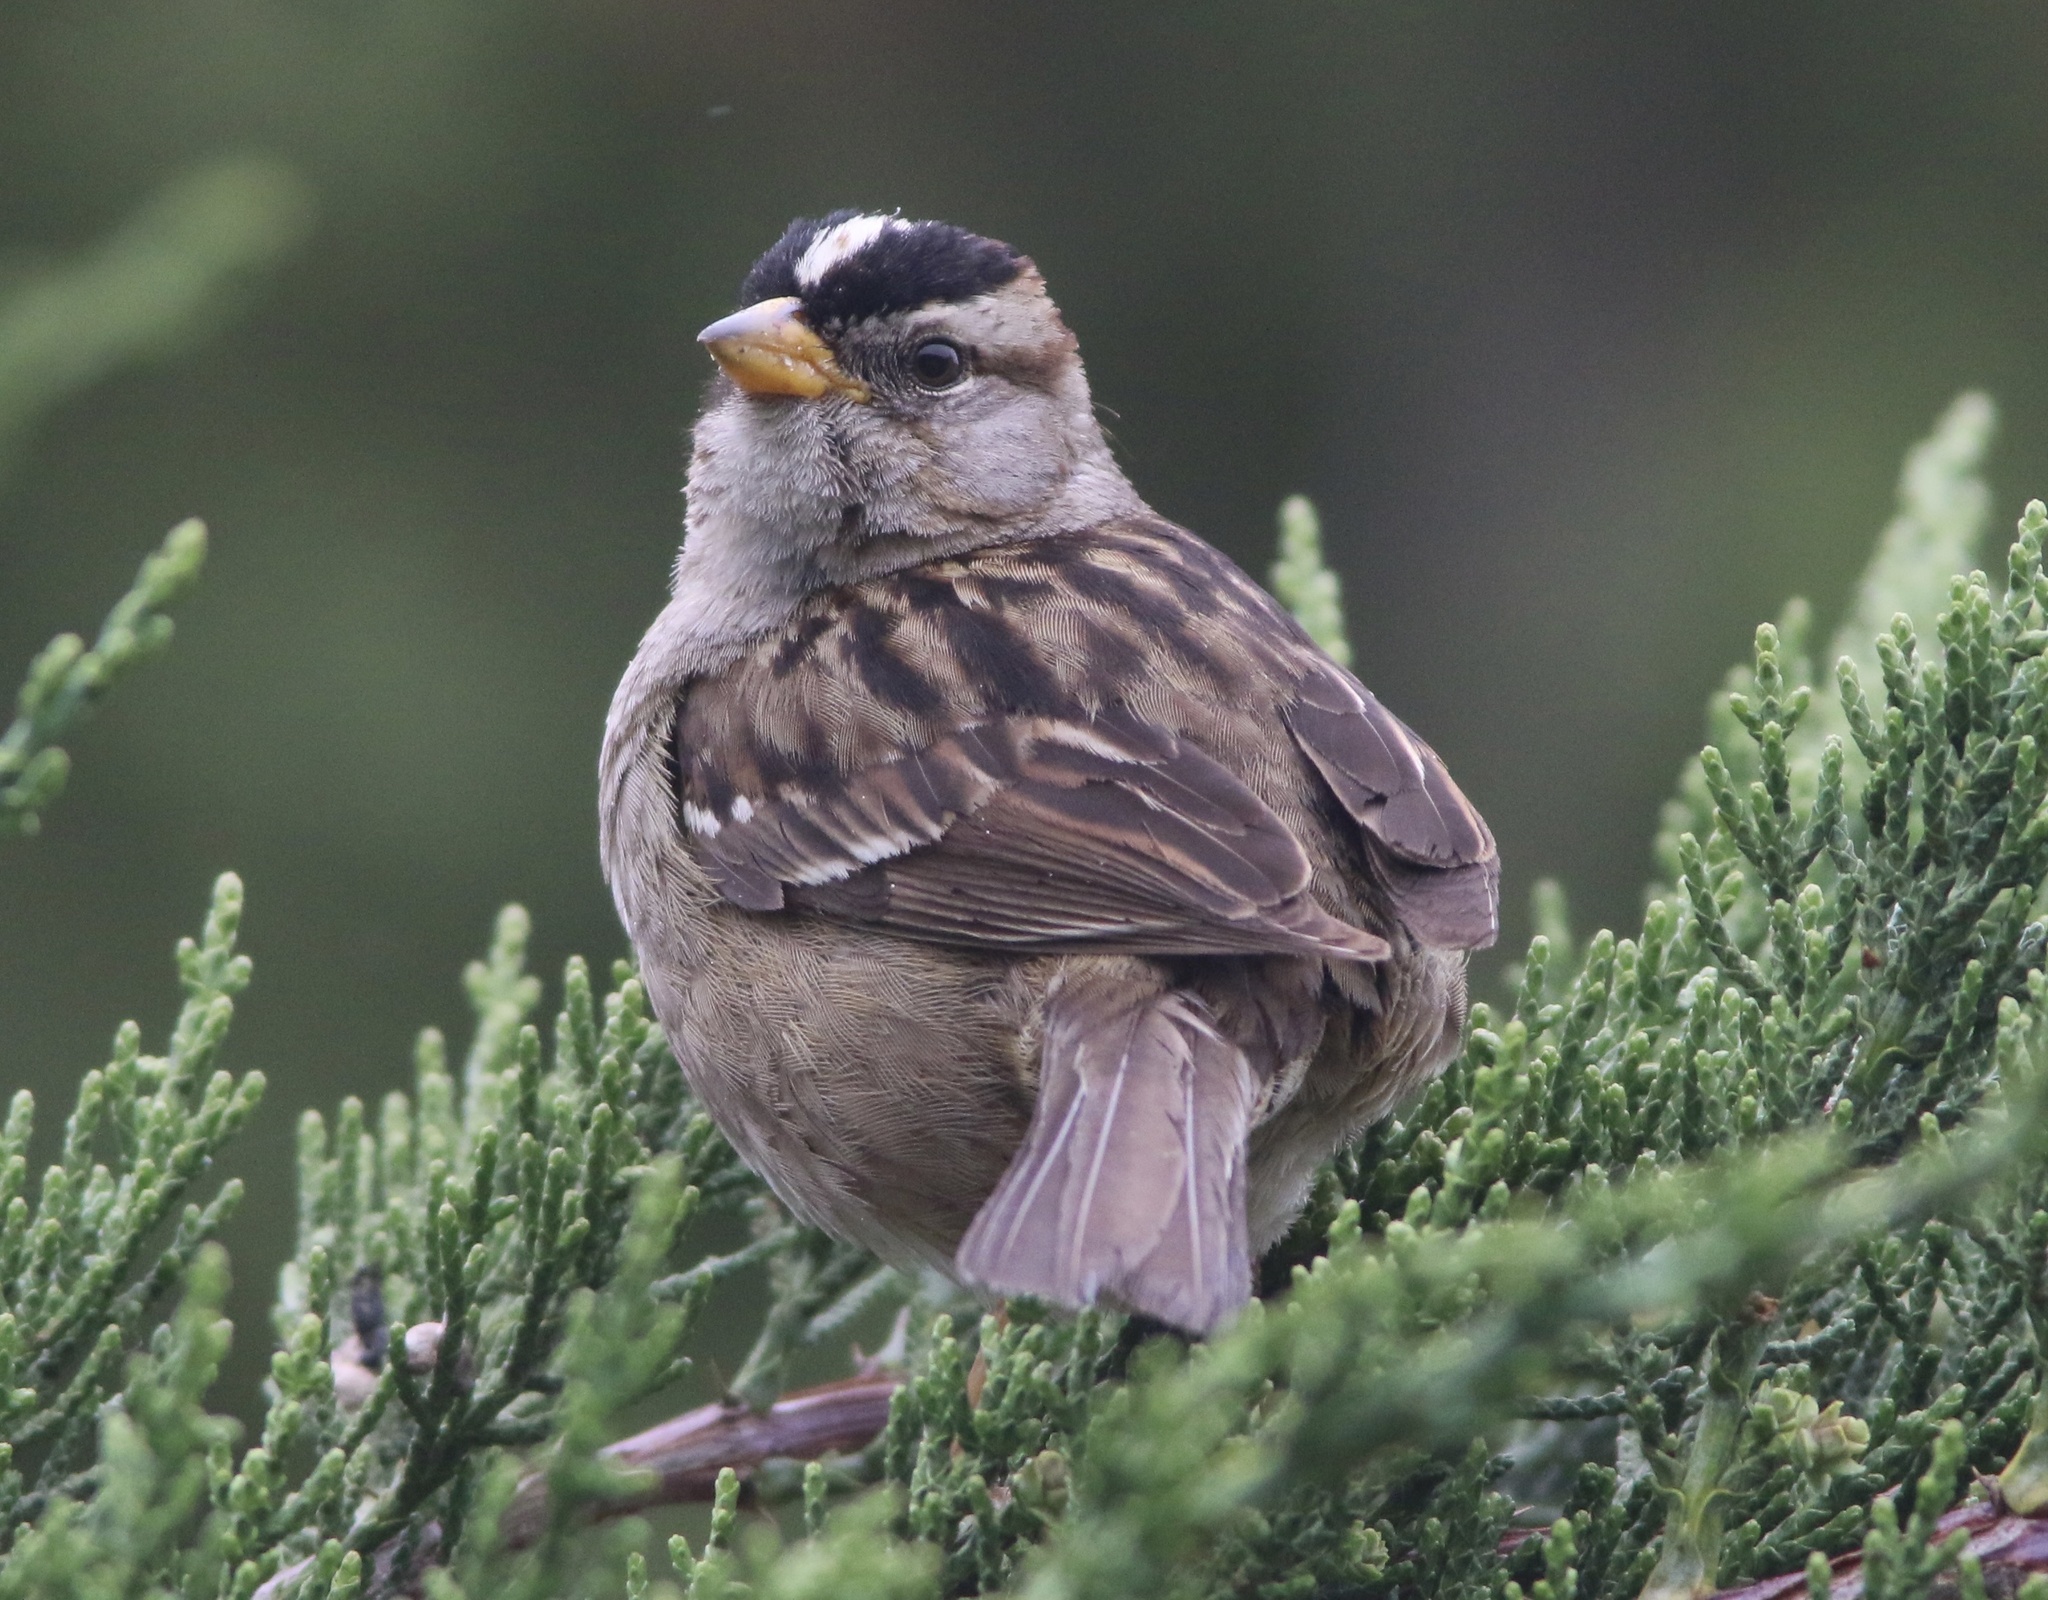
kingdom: Animalia
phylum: Chordata
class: Aves
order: Passeriformes
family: Passerellidae
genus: Zonotrichia
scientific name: Zonotrichia leucophrys
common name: White-crowned sparrow
